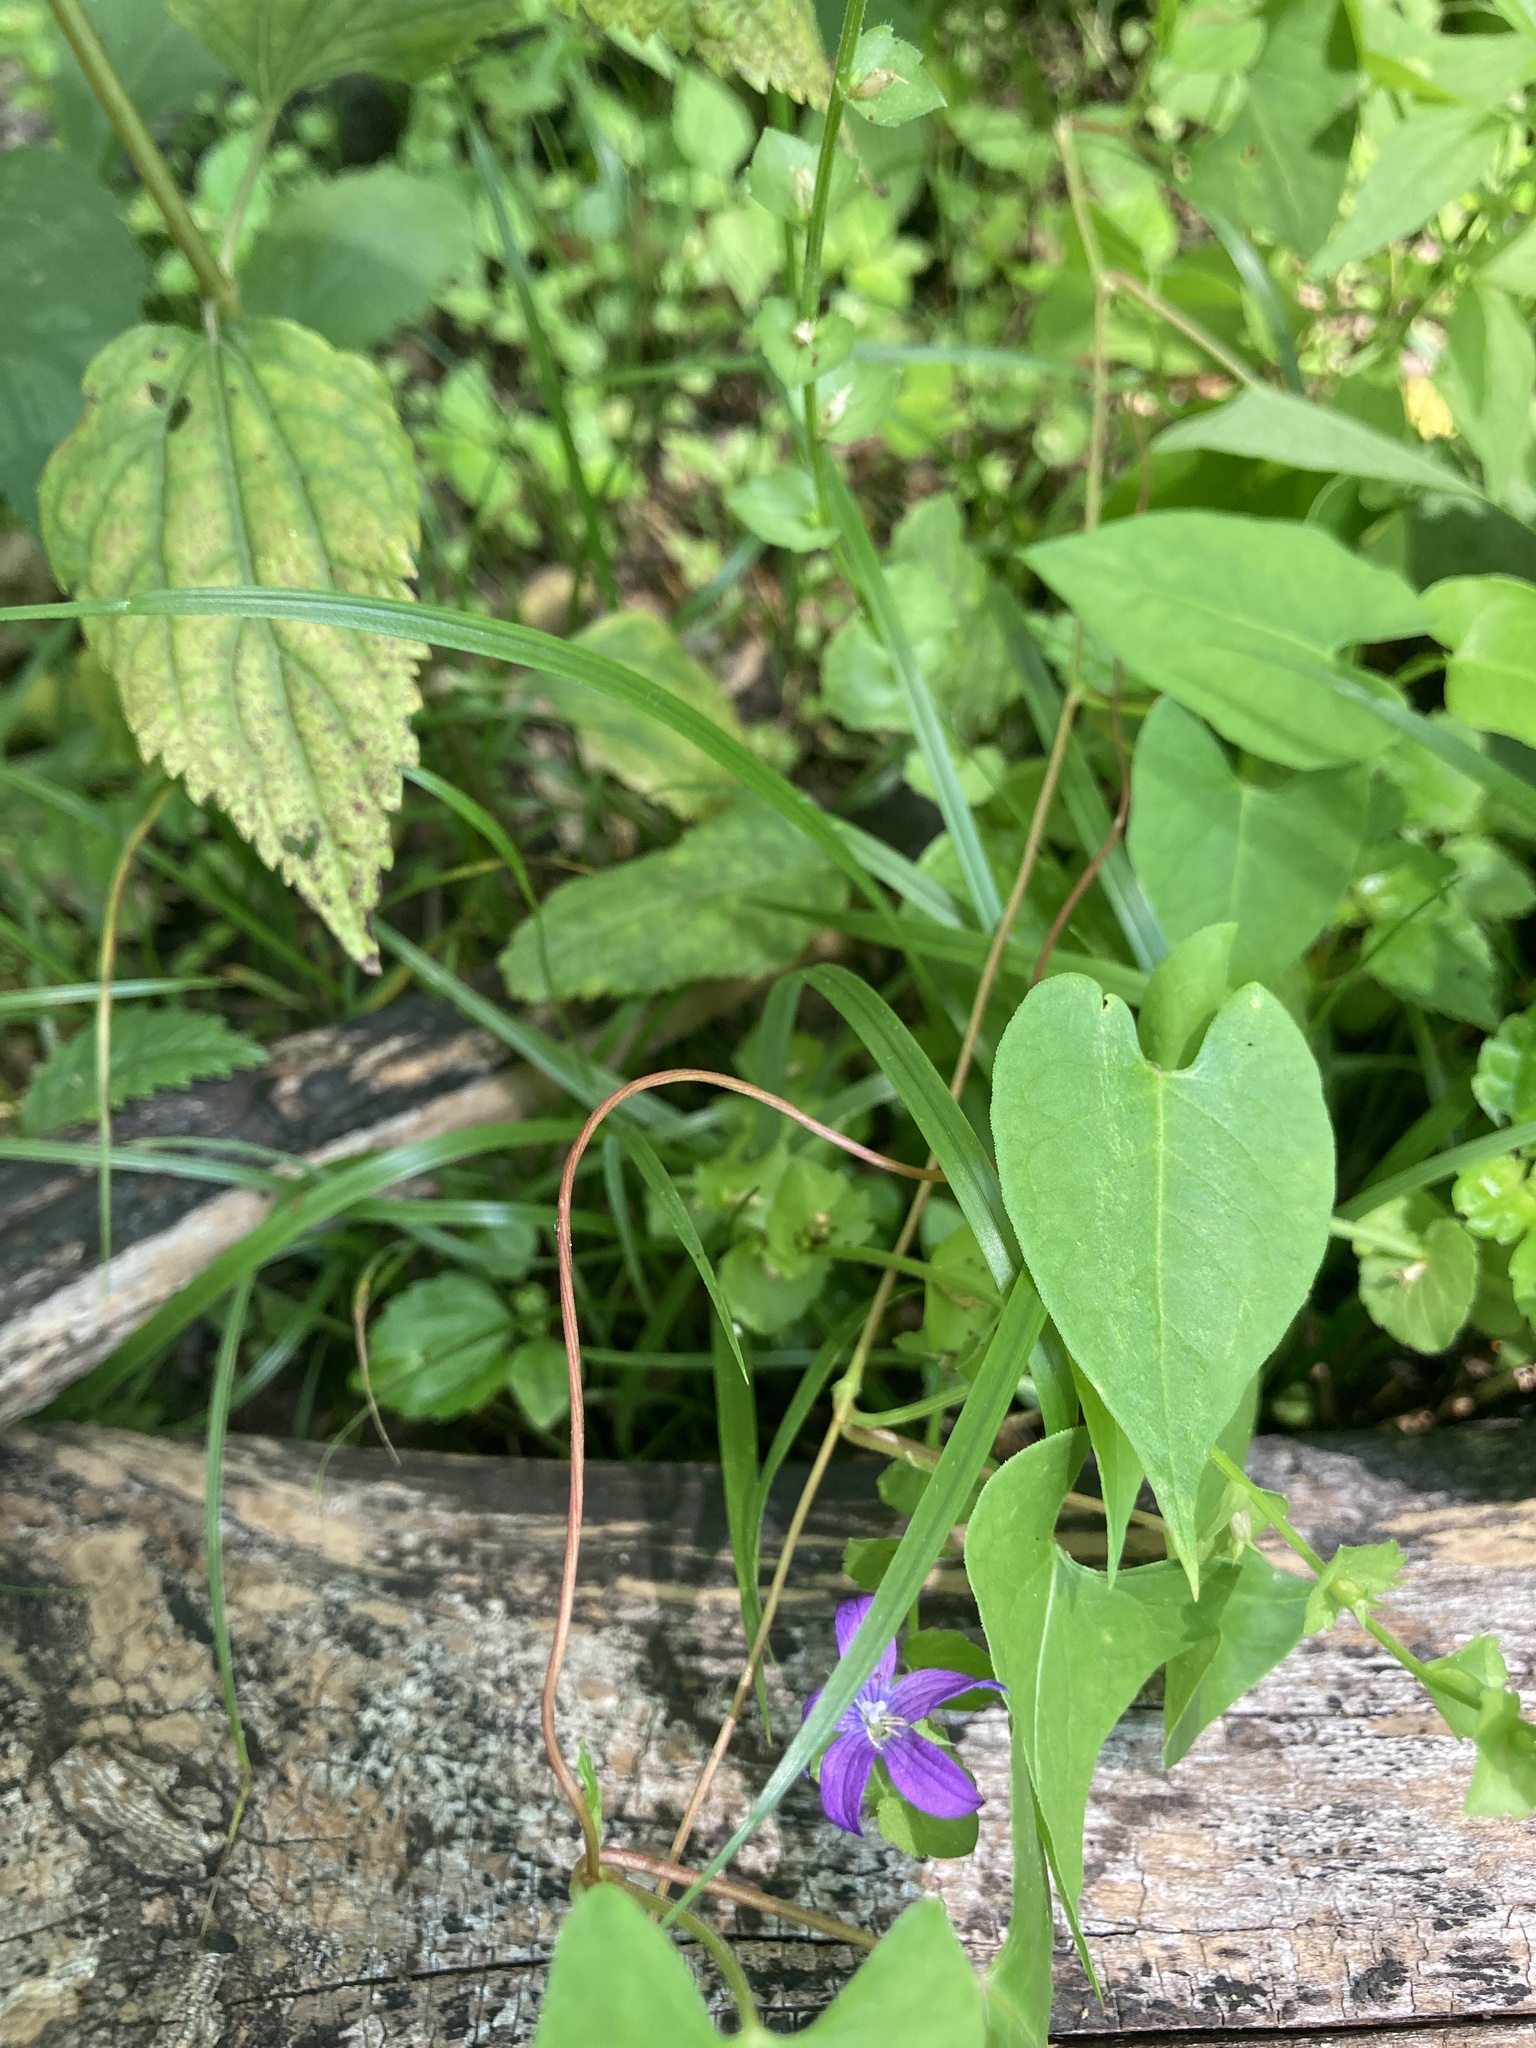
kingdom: Plantae
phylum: Tracheophyta
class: Magnoliopsida
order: Asterales
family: Campanulaceae
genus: Triodanis
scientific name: Triodanis perfoliata
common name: Clasping venus' looking-glass
